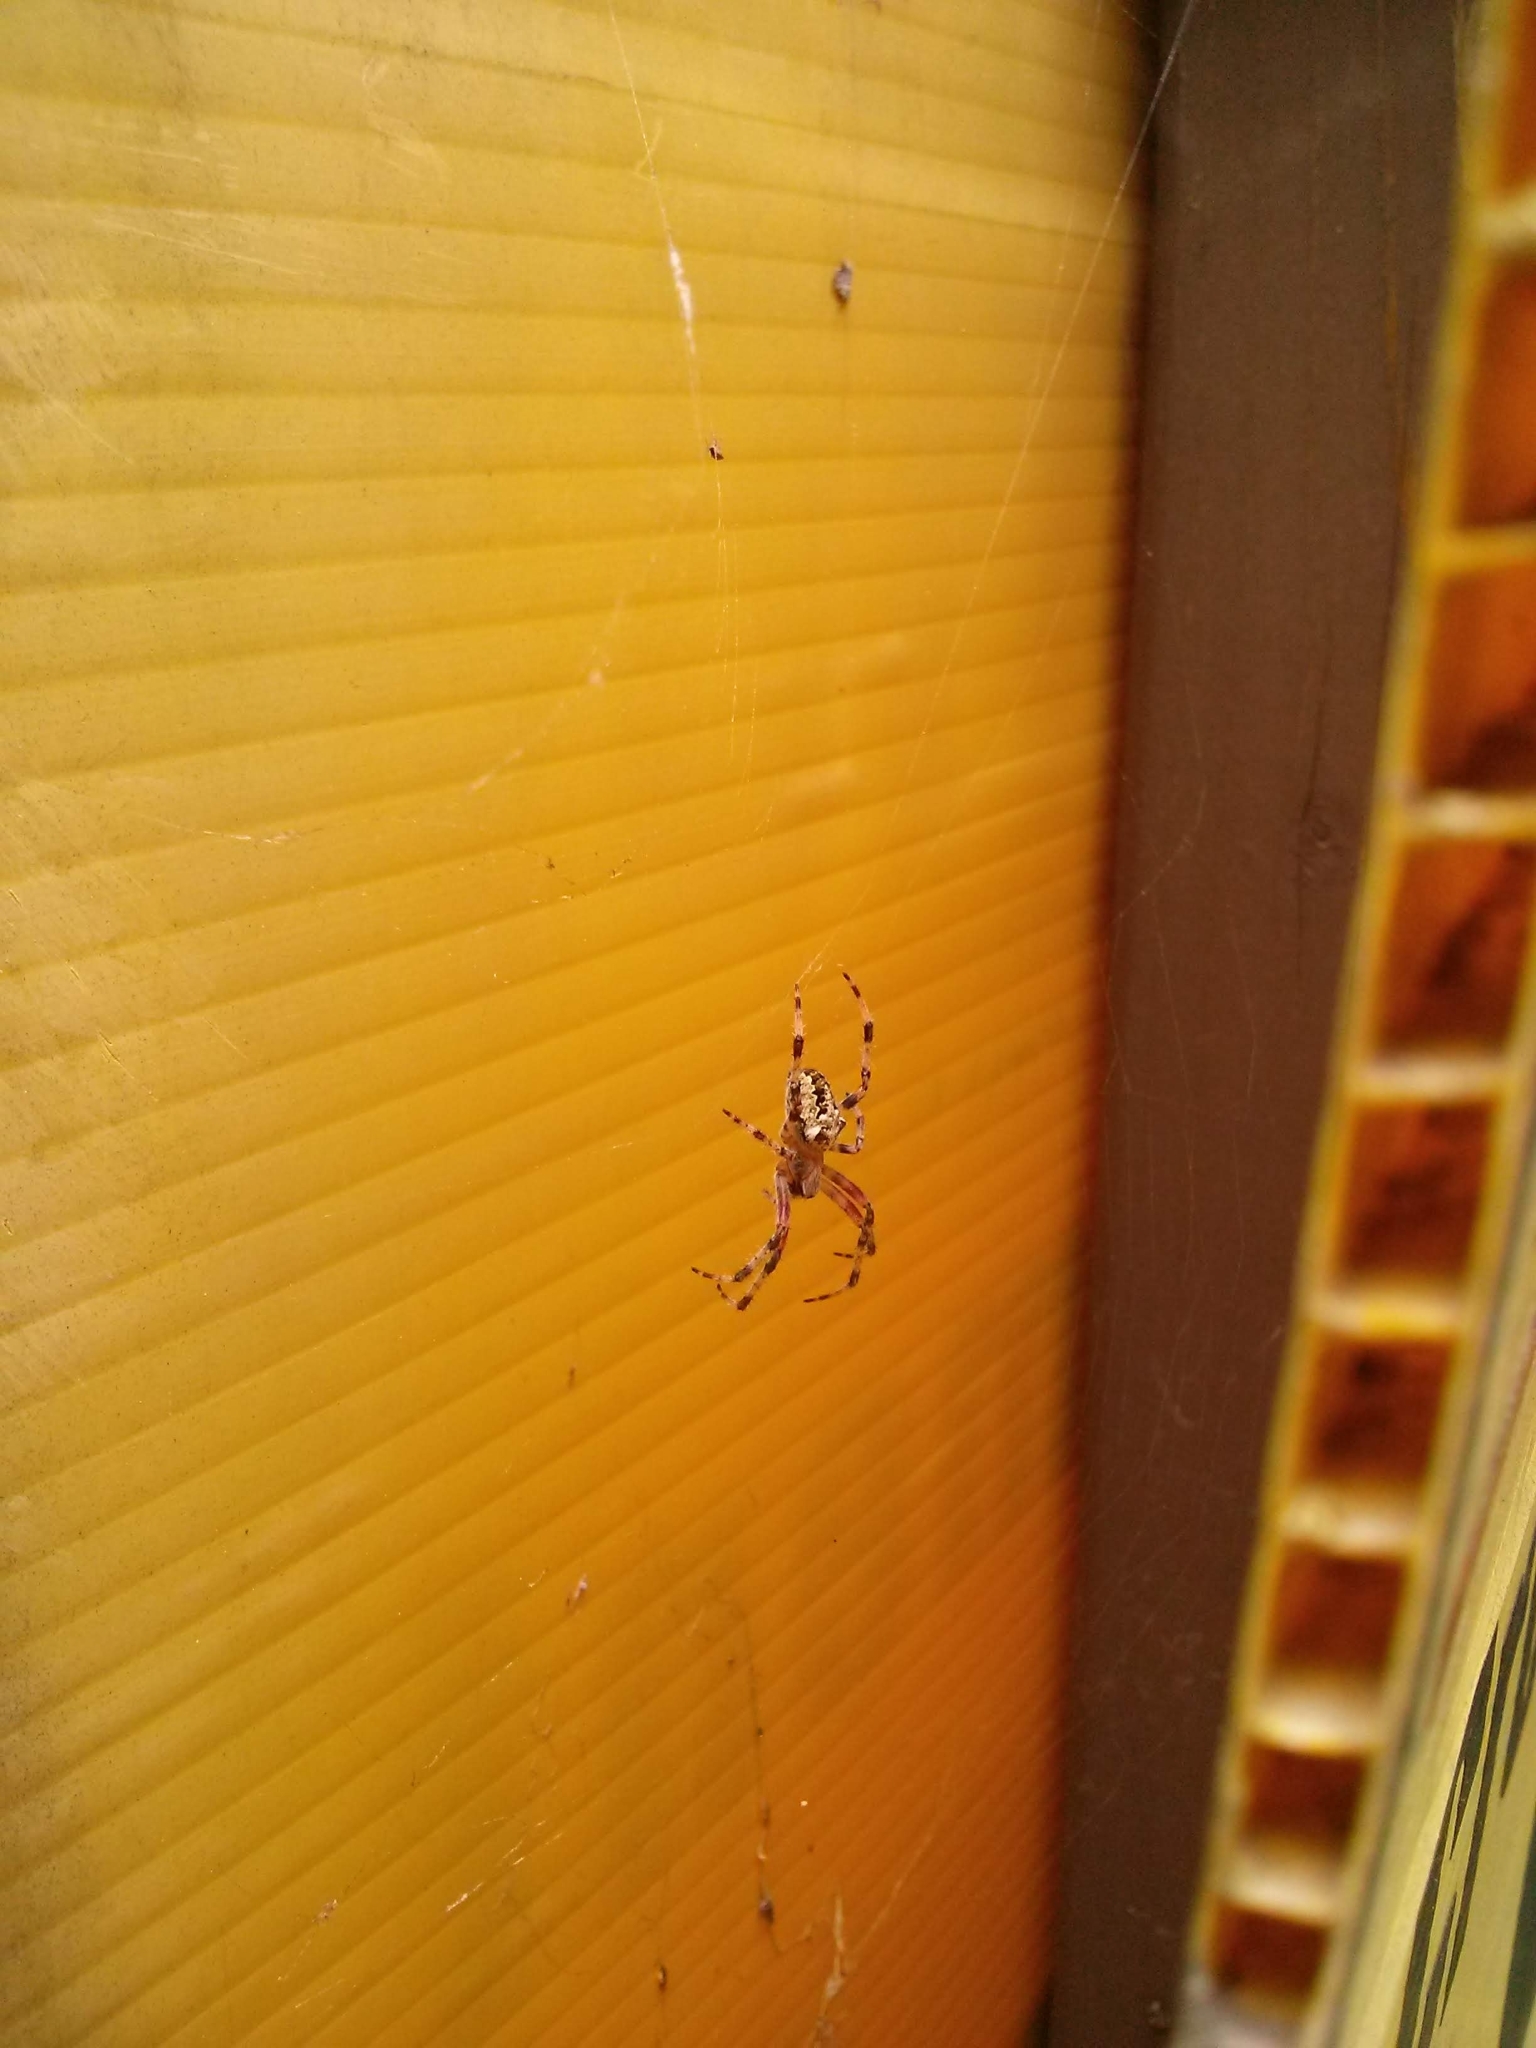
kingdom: Animalia
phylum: Arthropoda
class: Arachnida
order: Araneae
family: Araneidae
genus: Araneus
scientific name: Araneus nordmanni
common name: Nordmann's orbweaver
